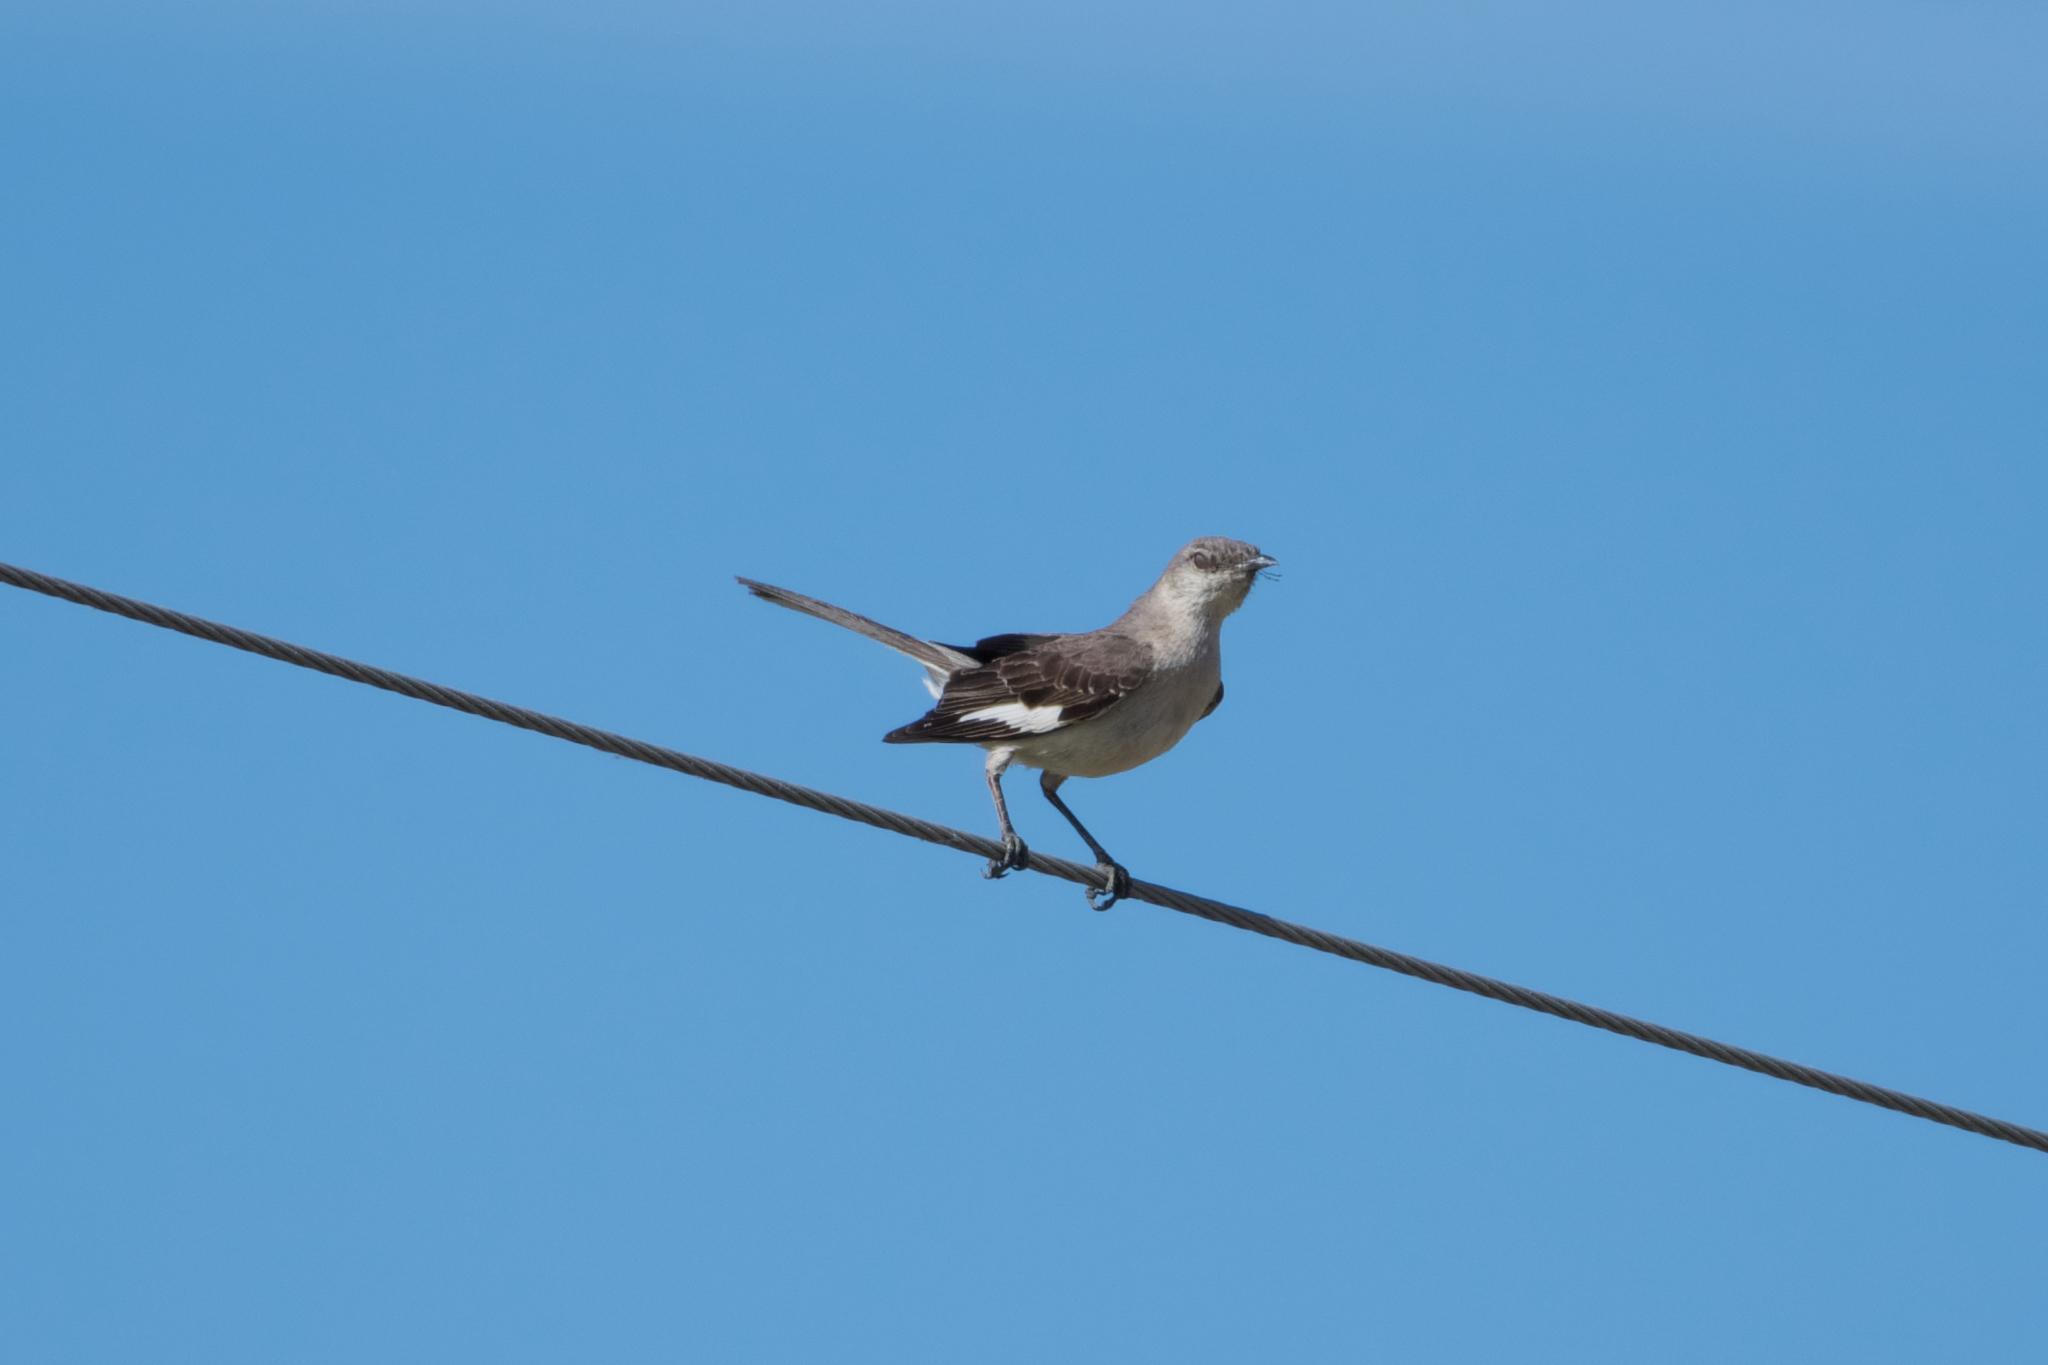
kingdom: Animalia
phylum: Chordata
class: Aves
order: Passeriformes
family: Mimidae
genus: Mimus
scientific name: Mimus polyglottos
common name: Northern mockingbird
